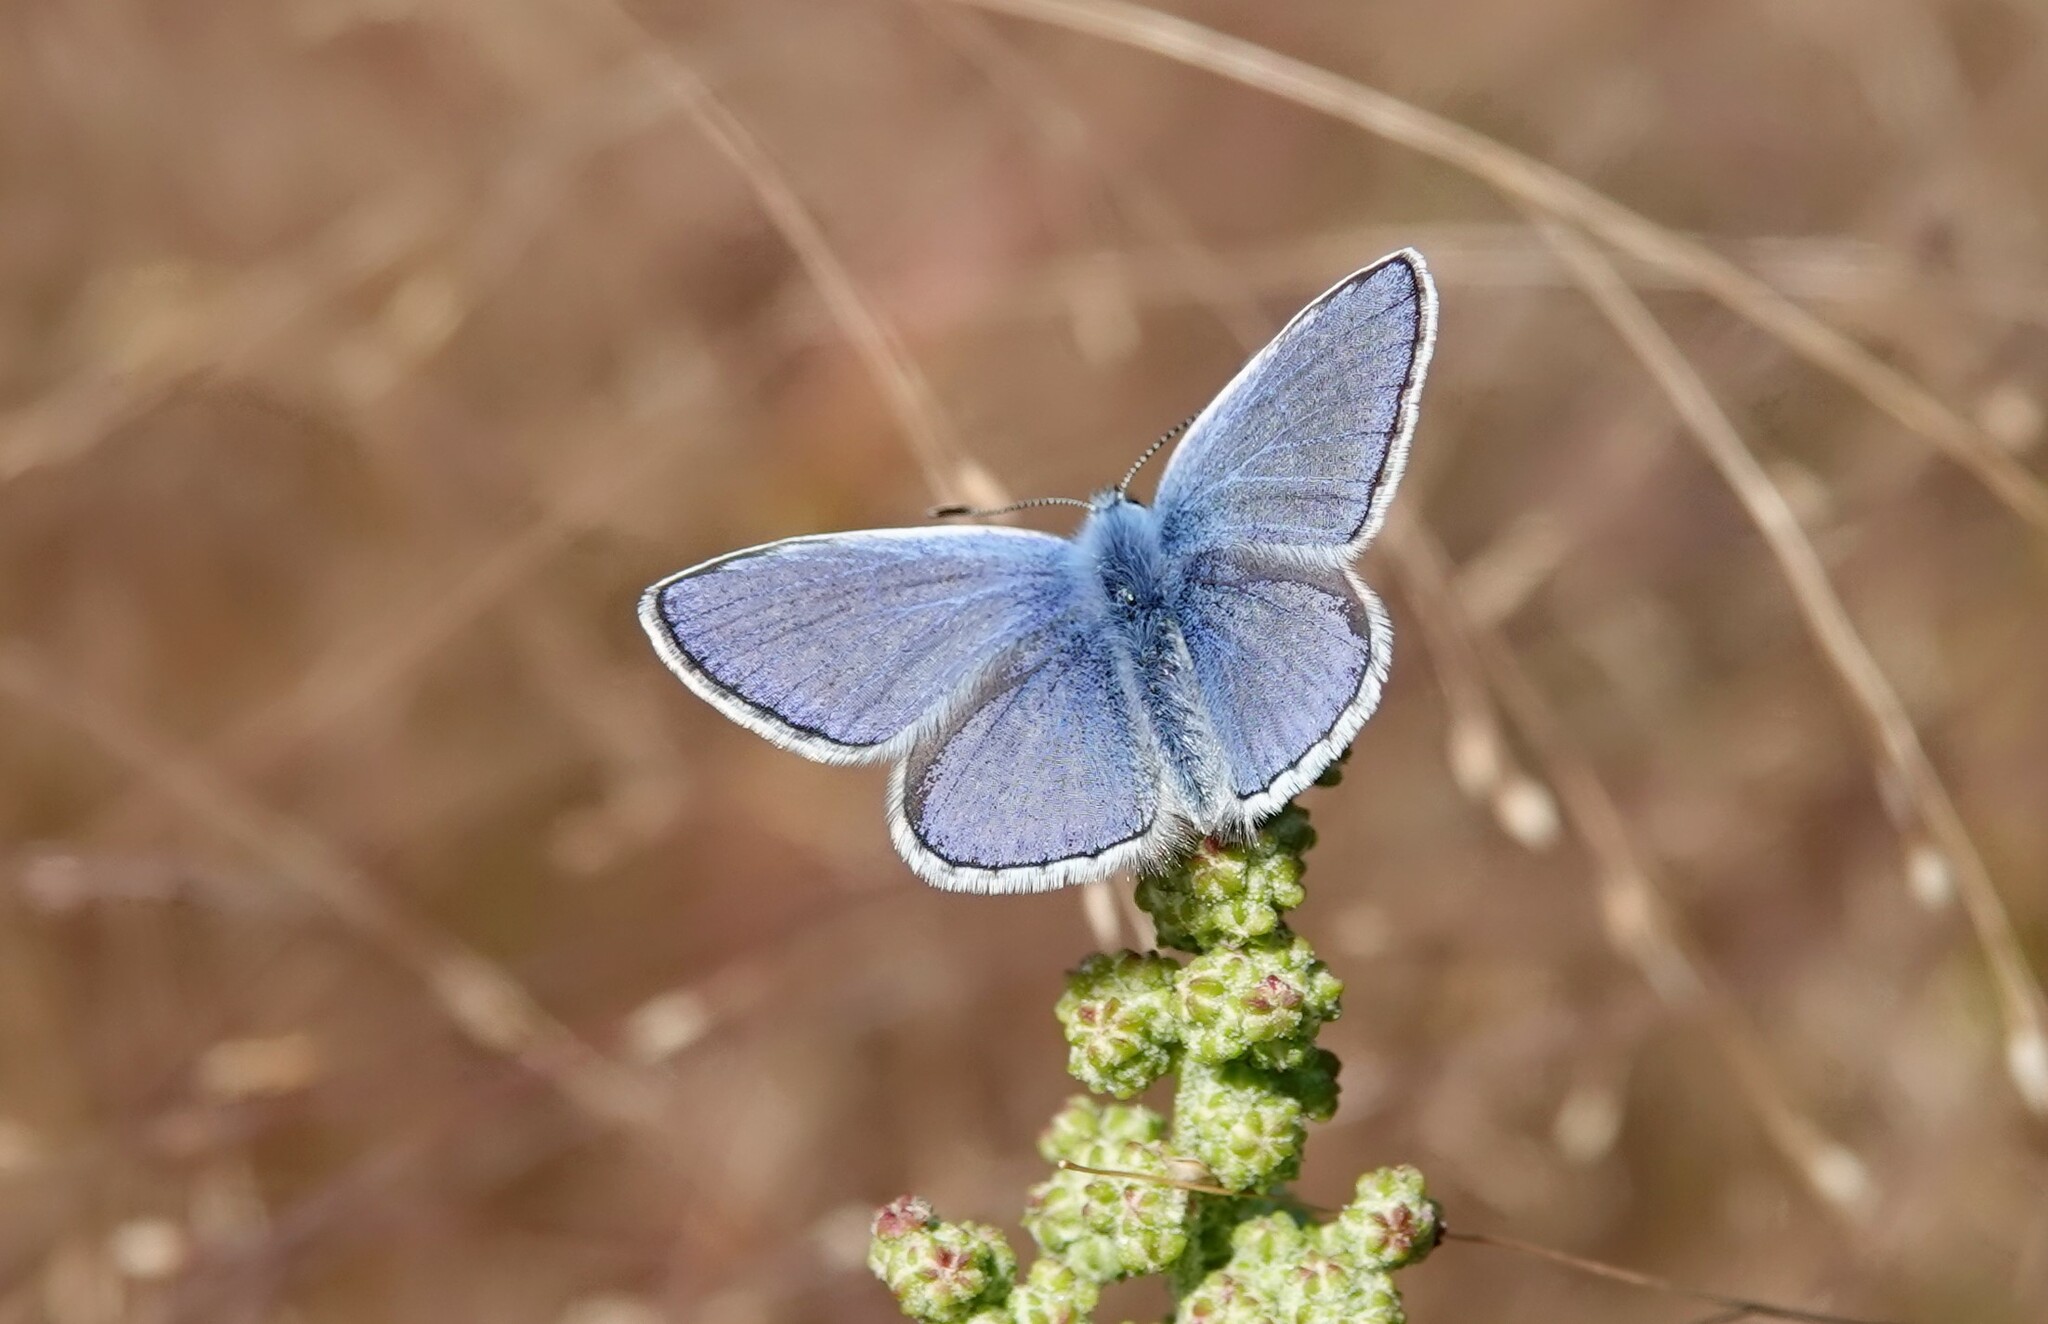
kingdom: Animalia
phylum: Arthropoda
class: Insecta
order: Lepidoptera
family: Lycaenidae
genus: Polyommatus
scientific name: Polyommatus icarus
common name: Common blue
